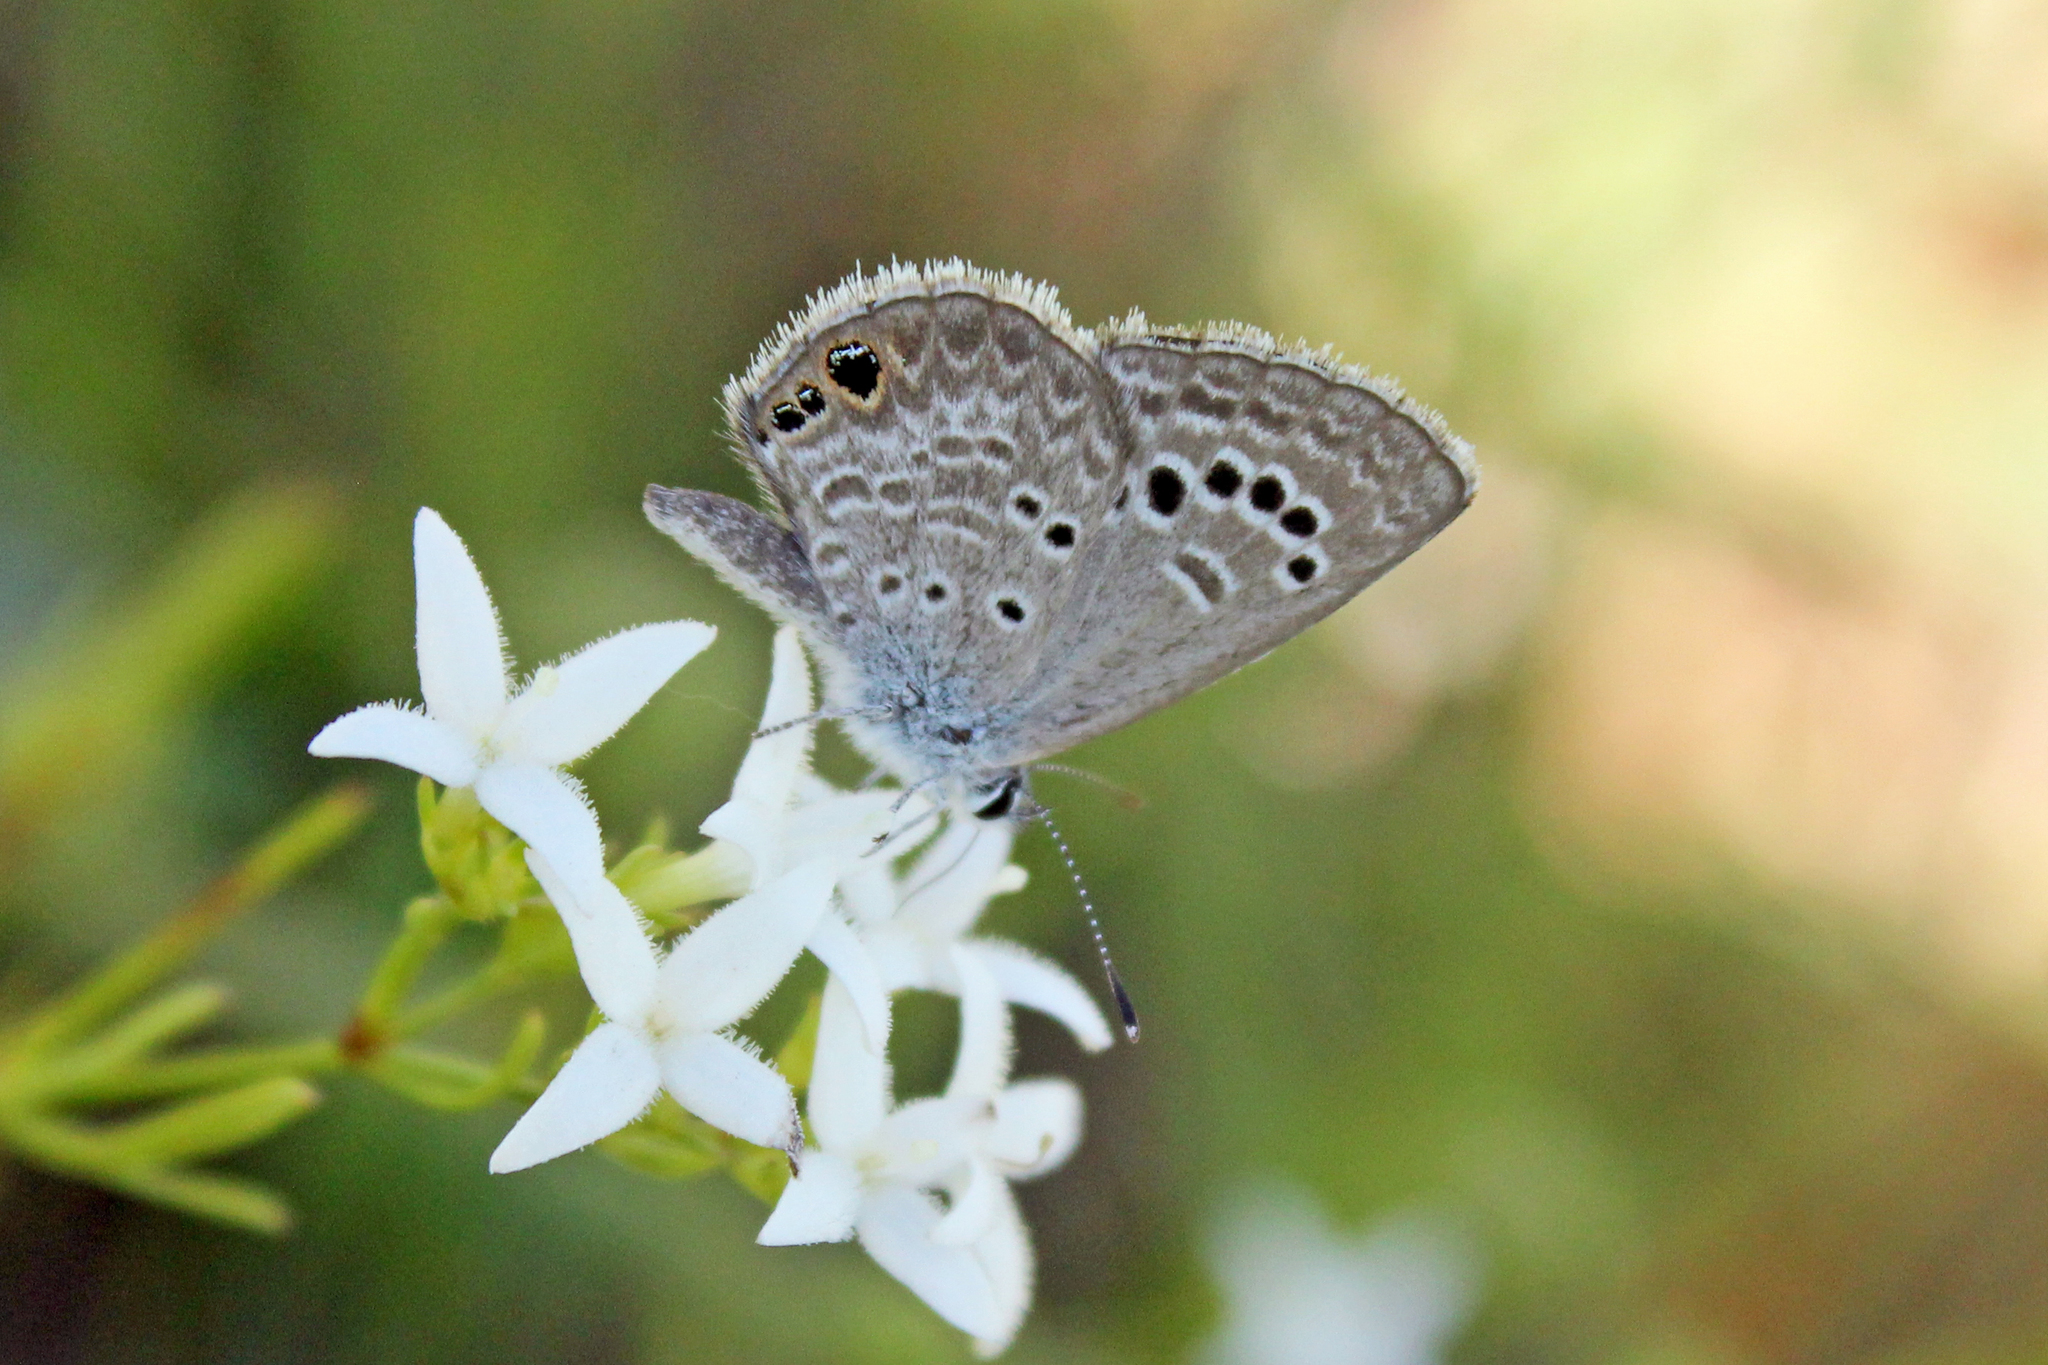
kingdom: Animalia
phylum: Arthropoda
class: Insecta
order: Lepidoptera
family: Lycaenidae
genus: Echinargus
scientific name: Echinargus isola
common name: Reakirt's blue
